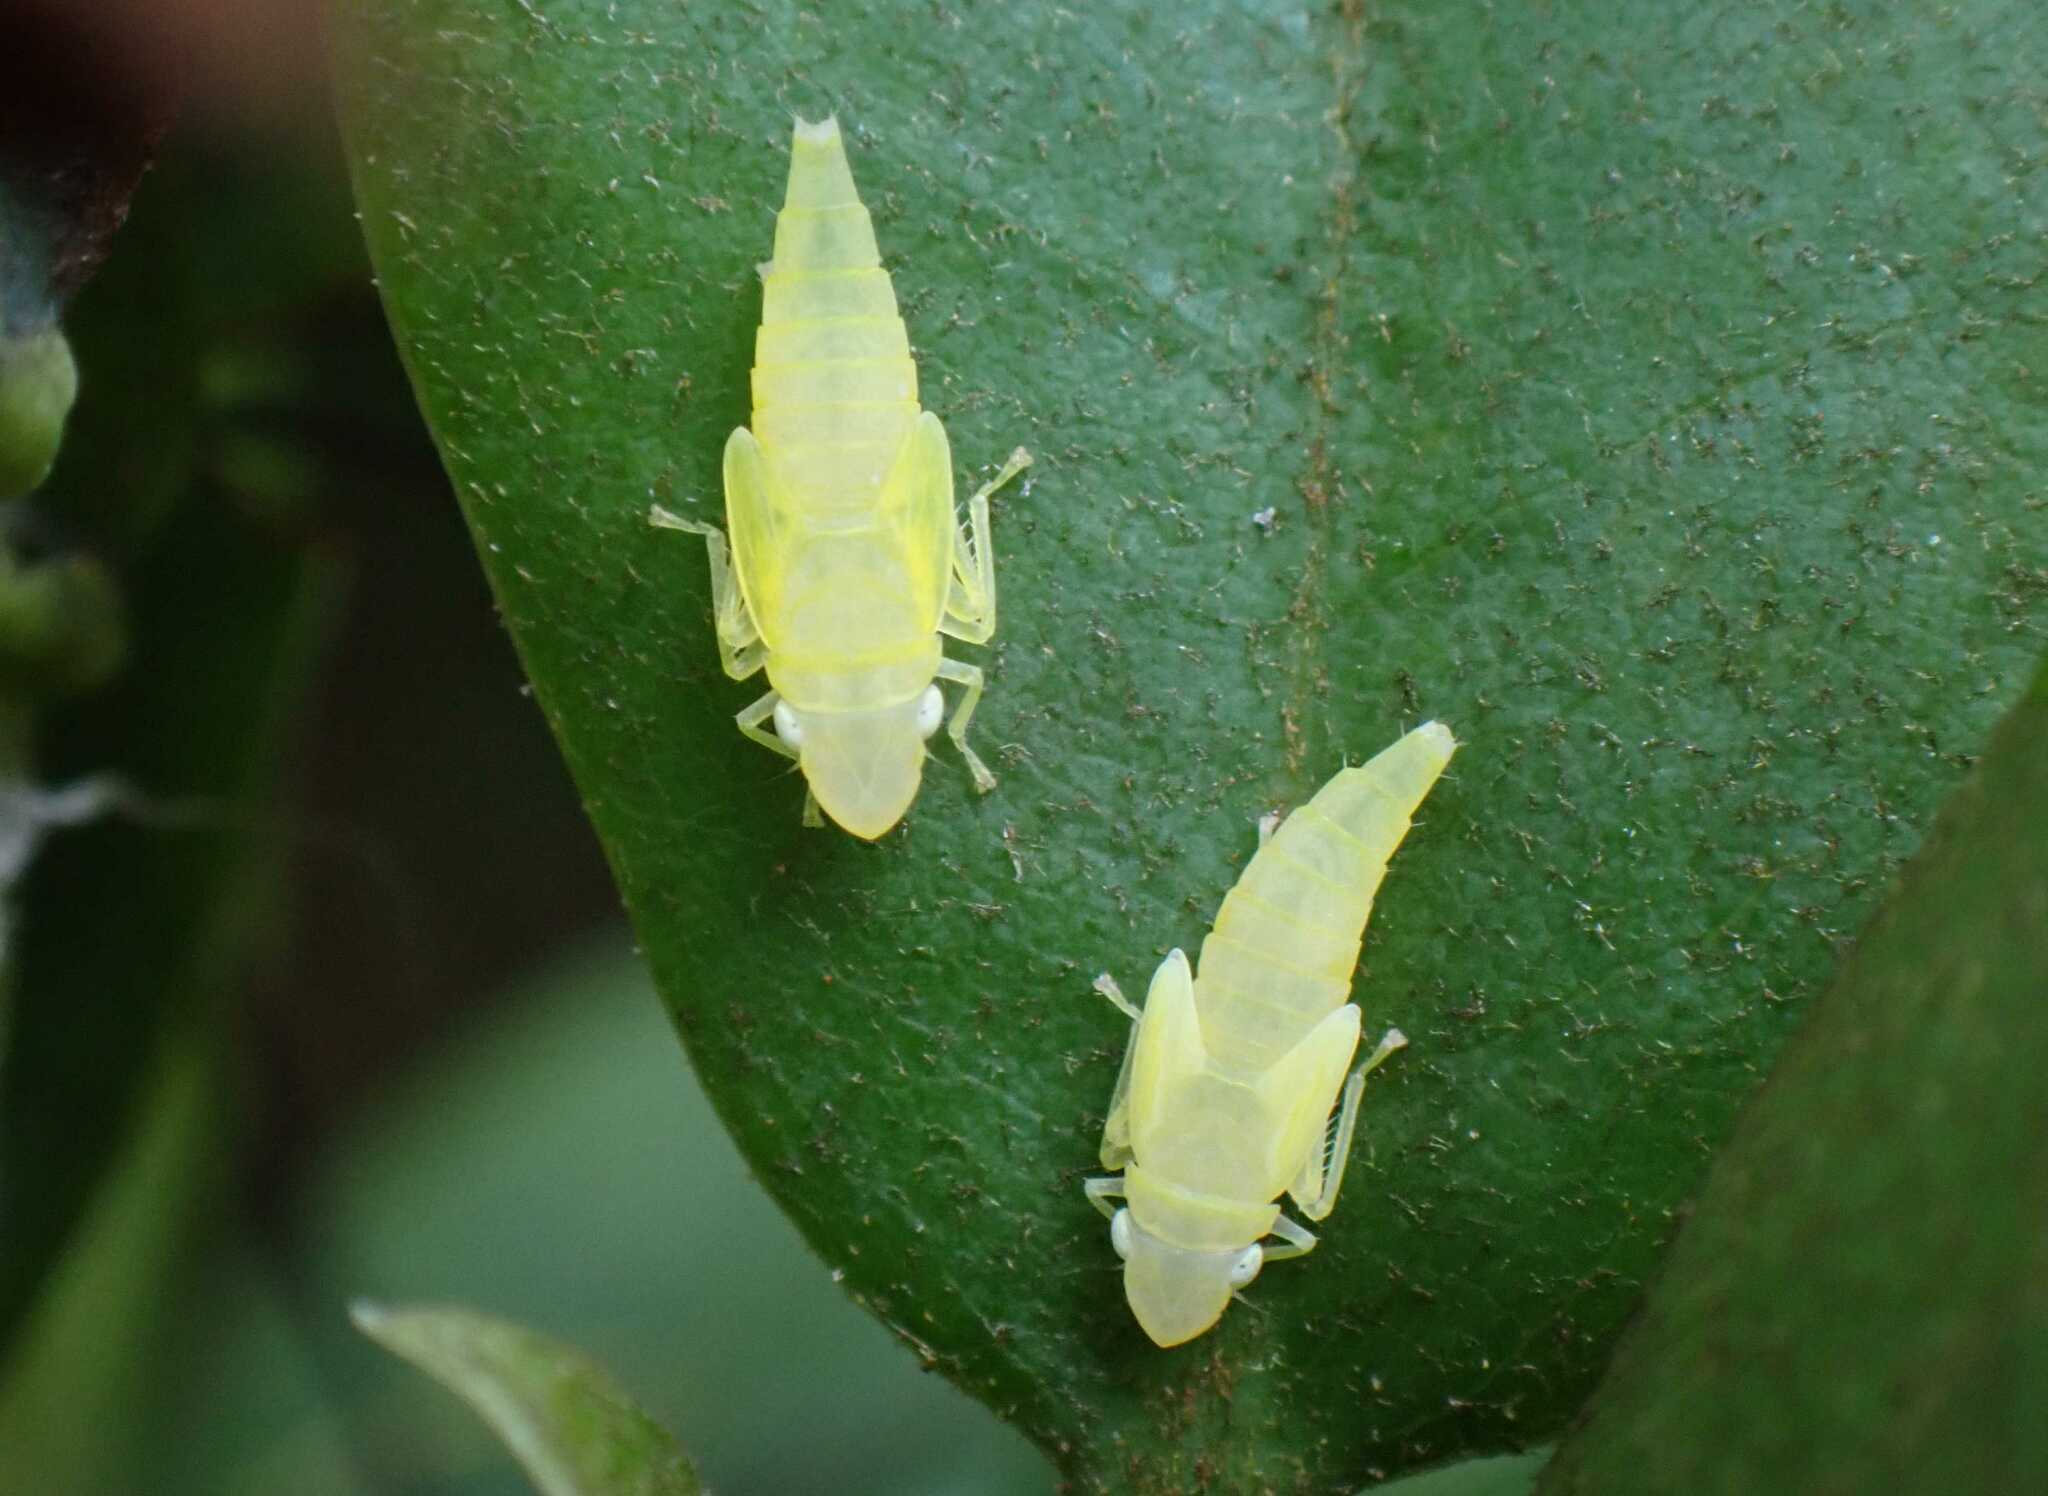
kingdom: Animalia
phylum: Arthropoda
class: Insecta
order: Hemiptera
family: Cicadellidae
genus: Graphocephala
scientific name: Graphocephala fennahi
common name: Rhododendron leafhopper
